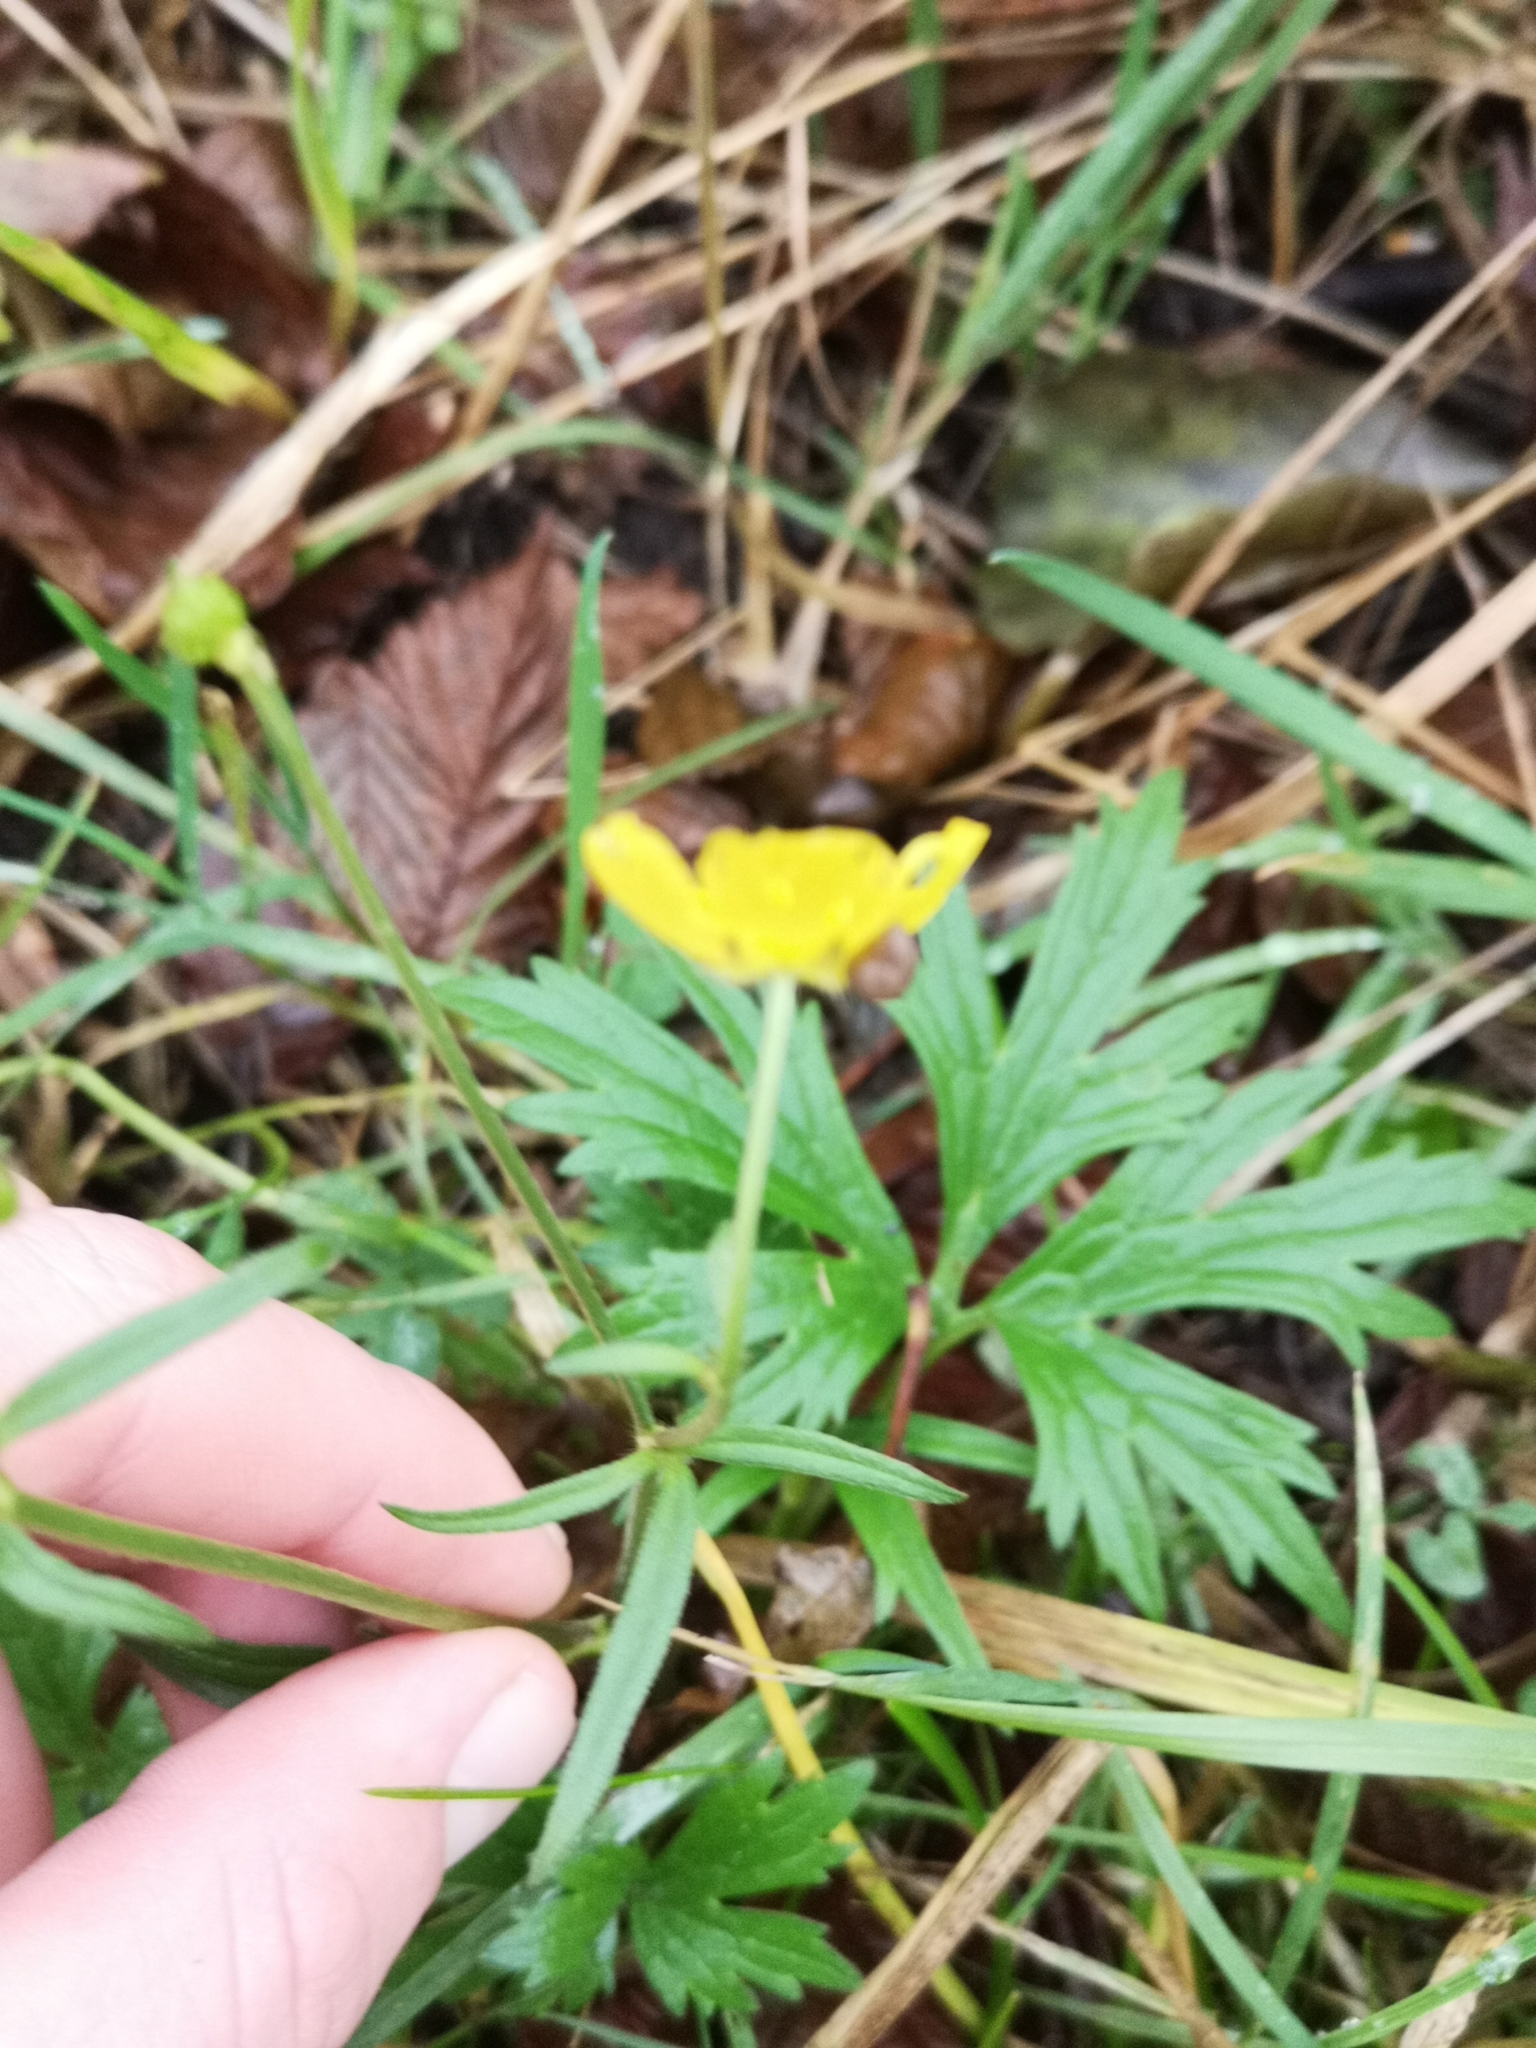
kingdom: Plantae
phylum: Tracheophyta
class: Magnoliopsida
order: Ranunculales
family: Ranunculaceae
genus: Ranunculus
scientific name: Ranunculus acris
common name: Meadow buttercup
